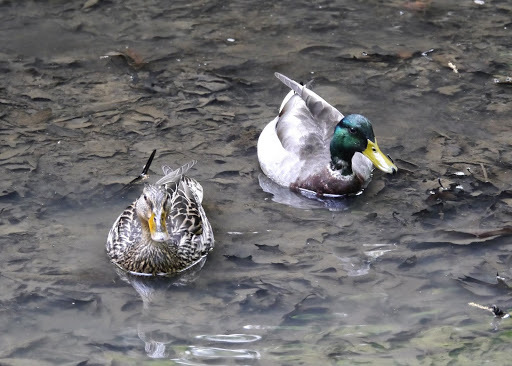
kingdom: Animalia
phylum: Chordata
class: Aves
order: Anseriformes
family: Anatidae
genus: Anas
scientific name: Anas platyrhynchos
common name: Mallard
